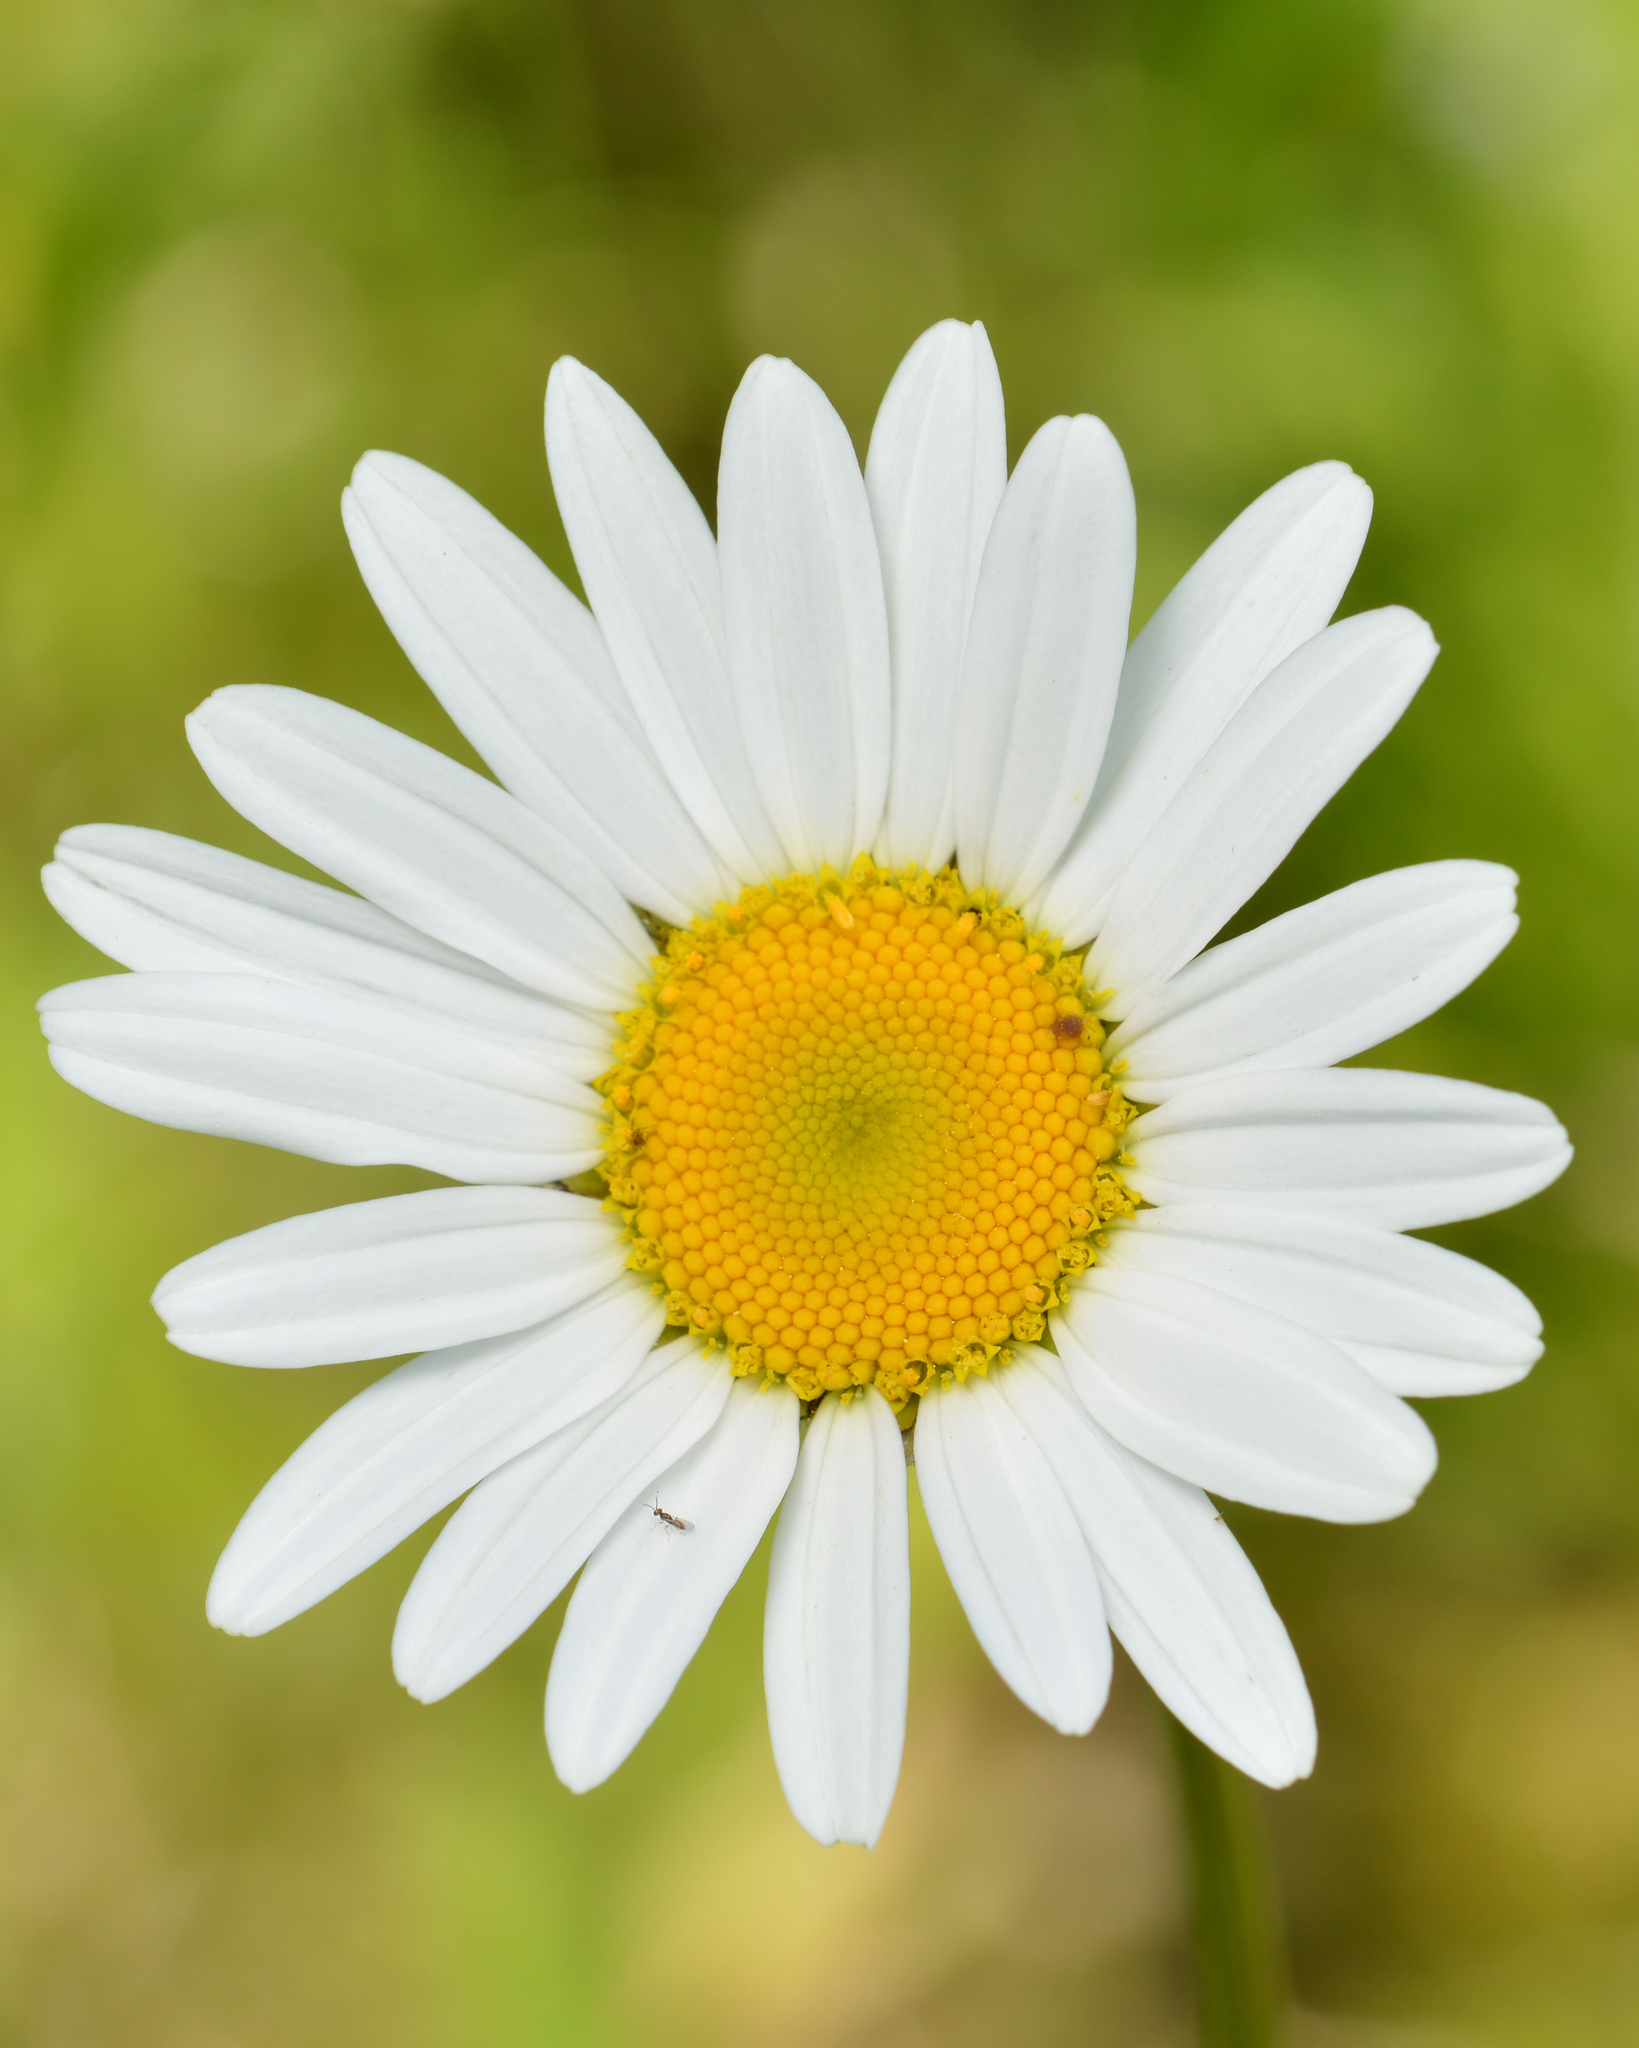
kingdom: Plantae
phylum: Tracheophyta
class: Magnoliopsida
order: Asterales
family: Asteraceae
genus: Leucanthemum
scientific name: Leucanthemum vulgare
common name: Oxeye daisy
